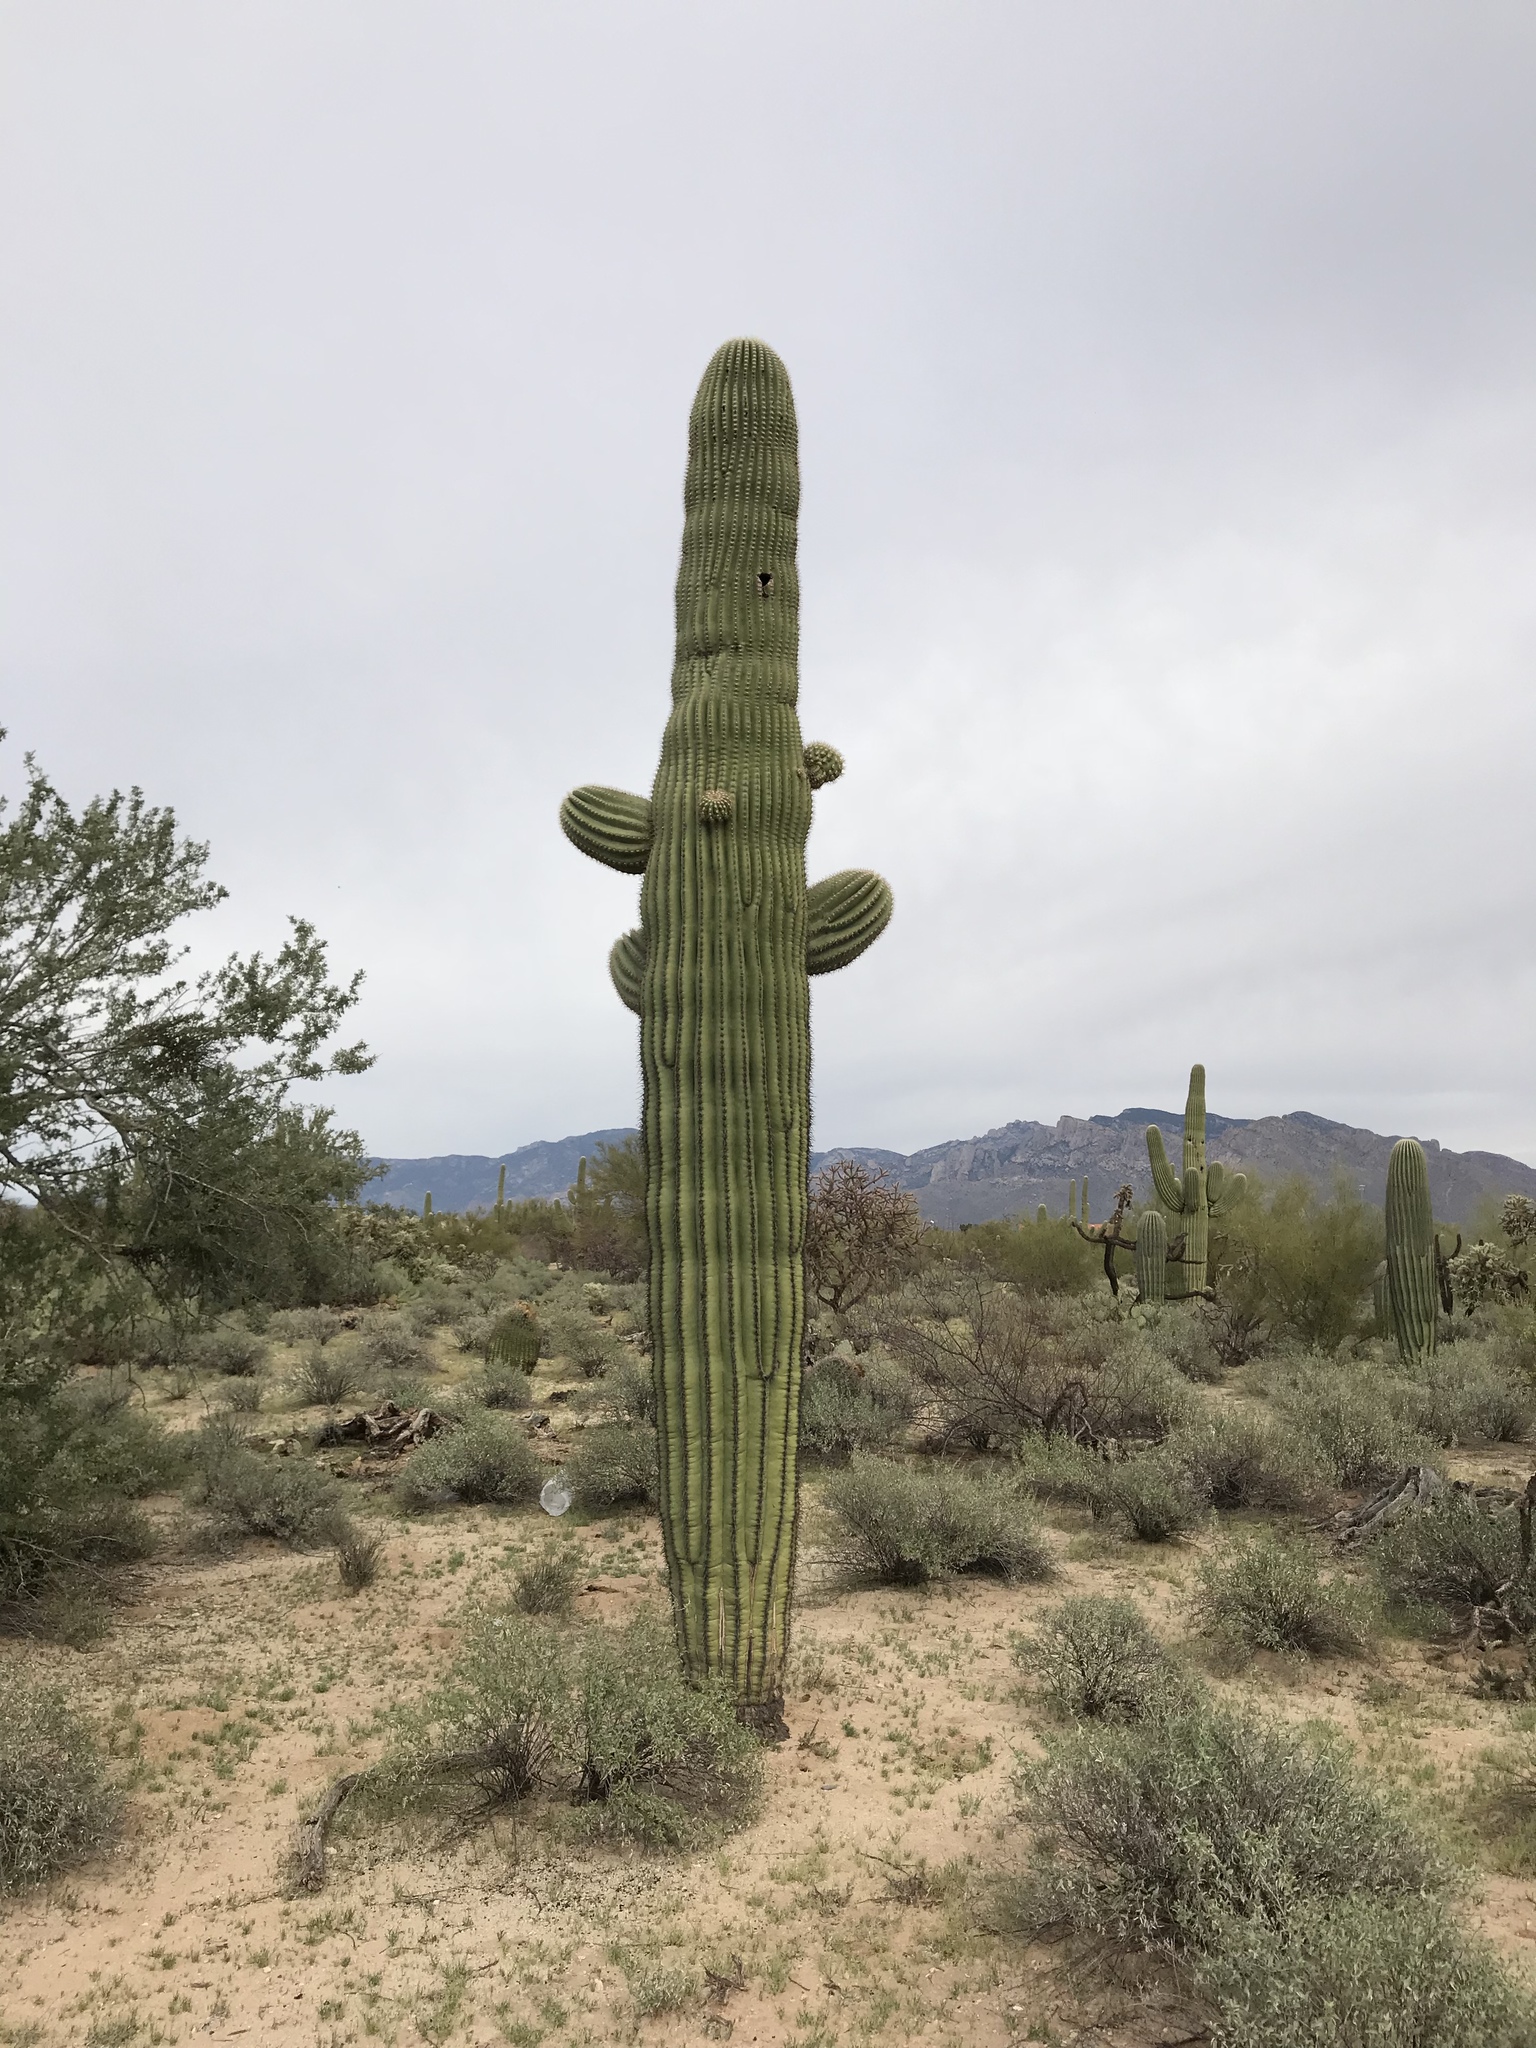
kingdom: Plantae
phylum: Tracheophyta
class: Magnoliopsida
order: Caryophyllales
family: Cactaceae
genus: Carnegiea
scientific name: Carnegiea gigantea
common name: Saguaro
